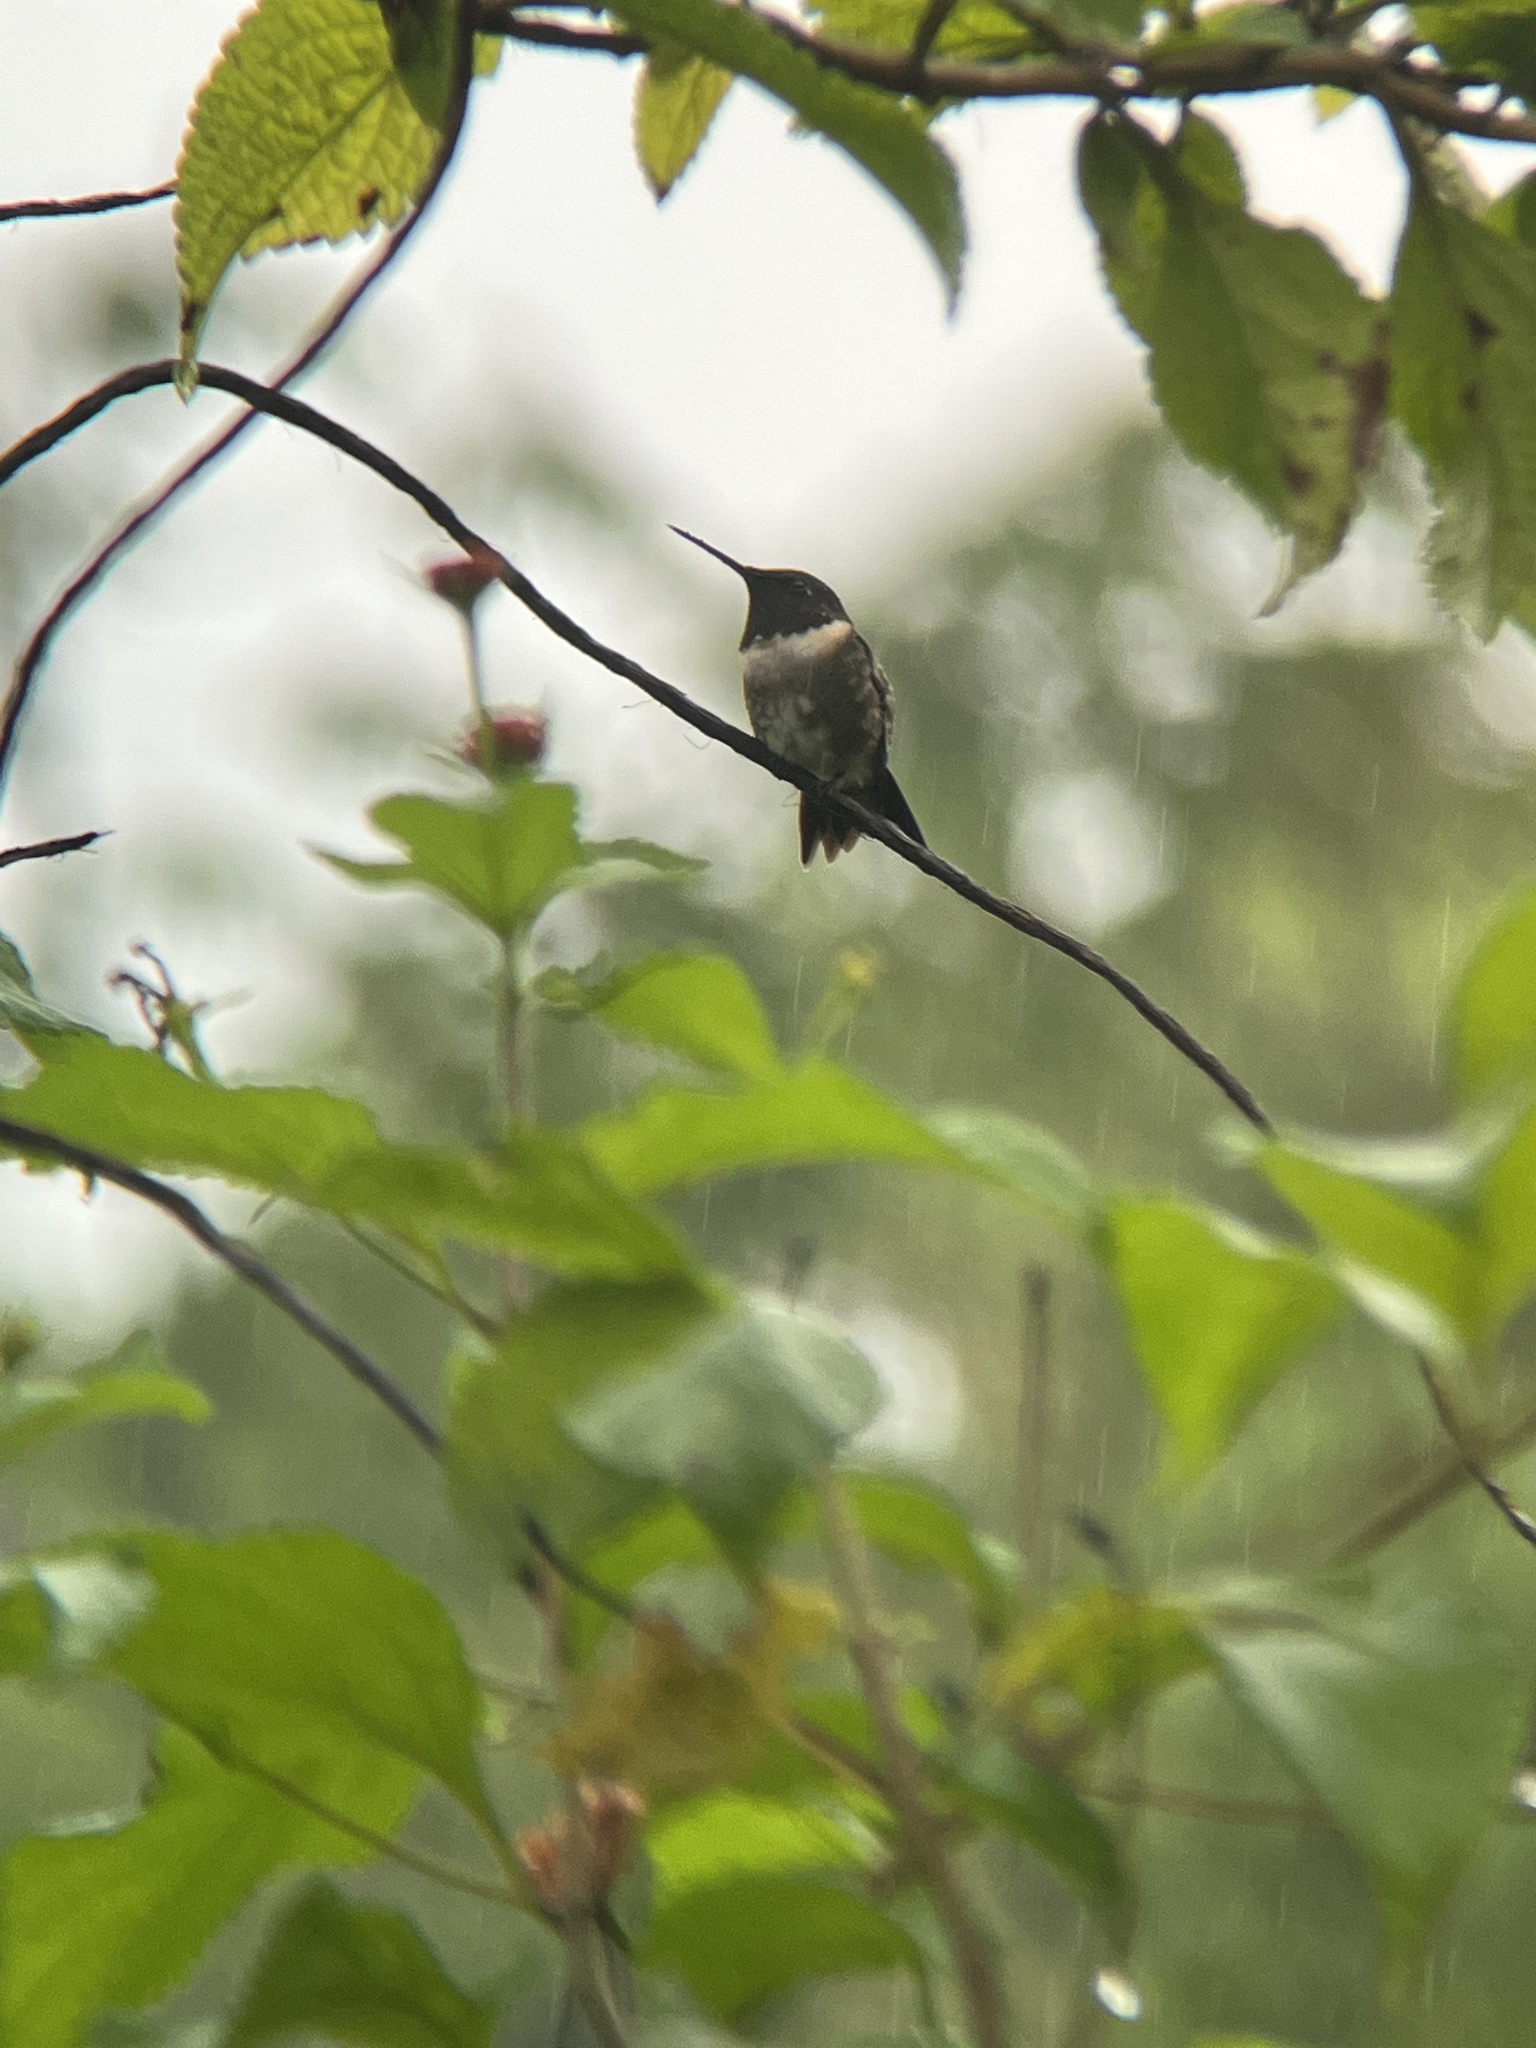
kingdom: Animalia
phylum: Chordata
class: Aves
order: Apodiformes
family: Trochilidae
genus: Archilochus
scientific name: Archilochus colubris
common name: Ruby-throated hummingbird
